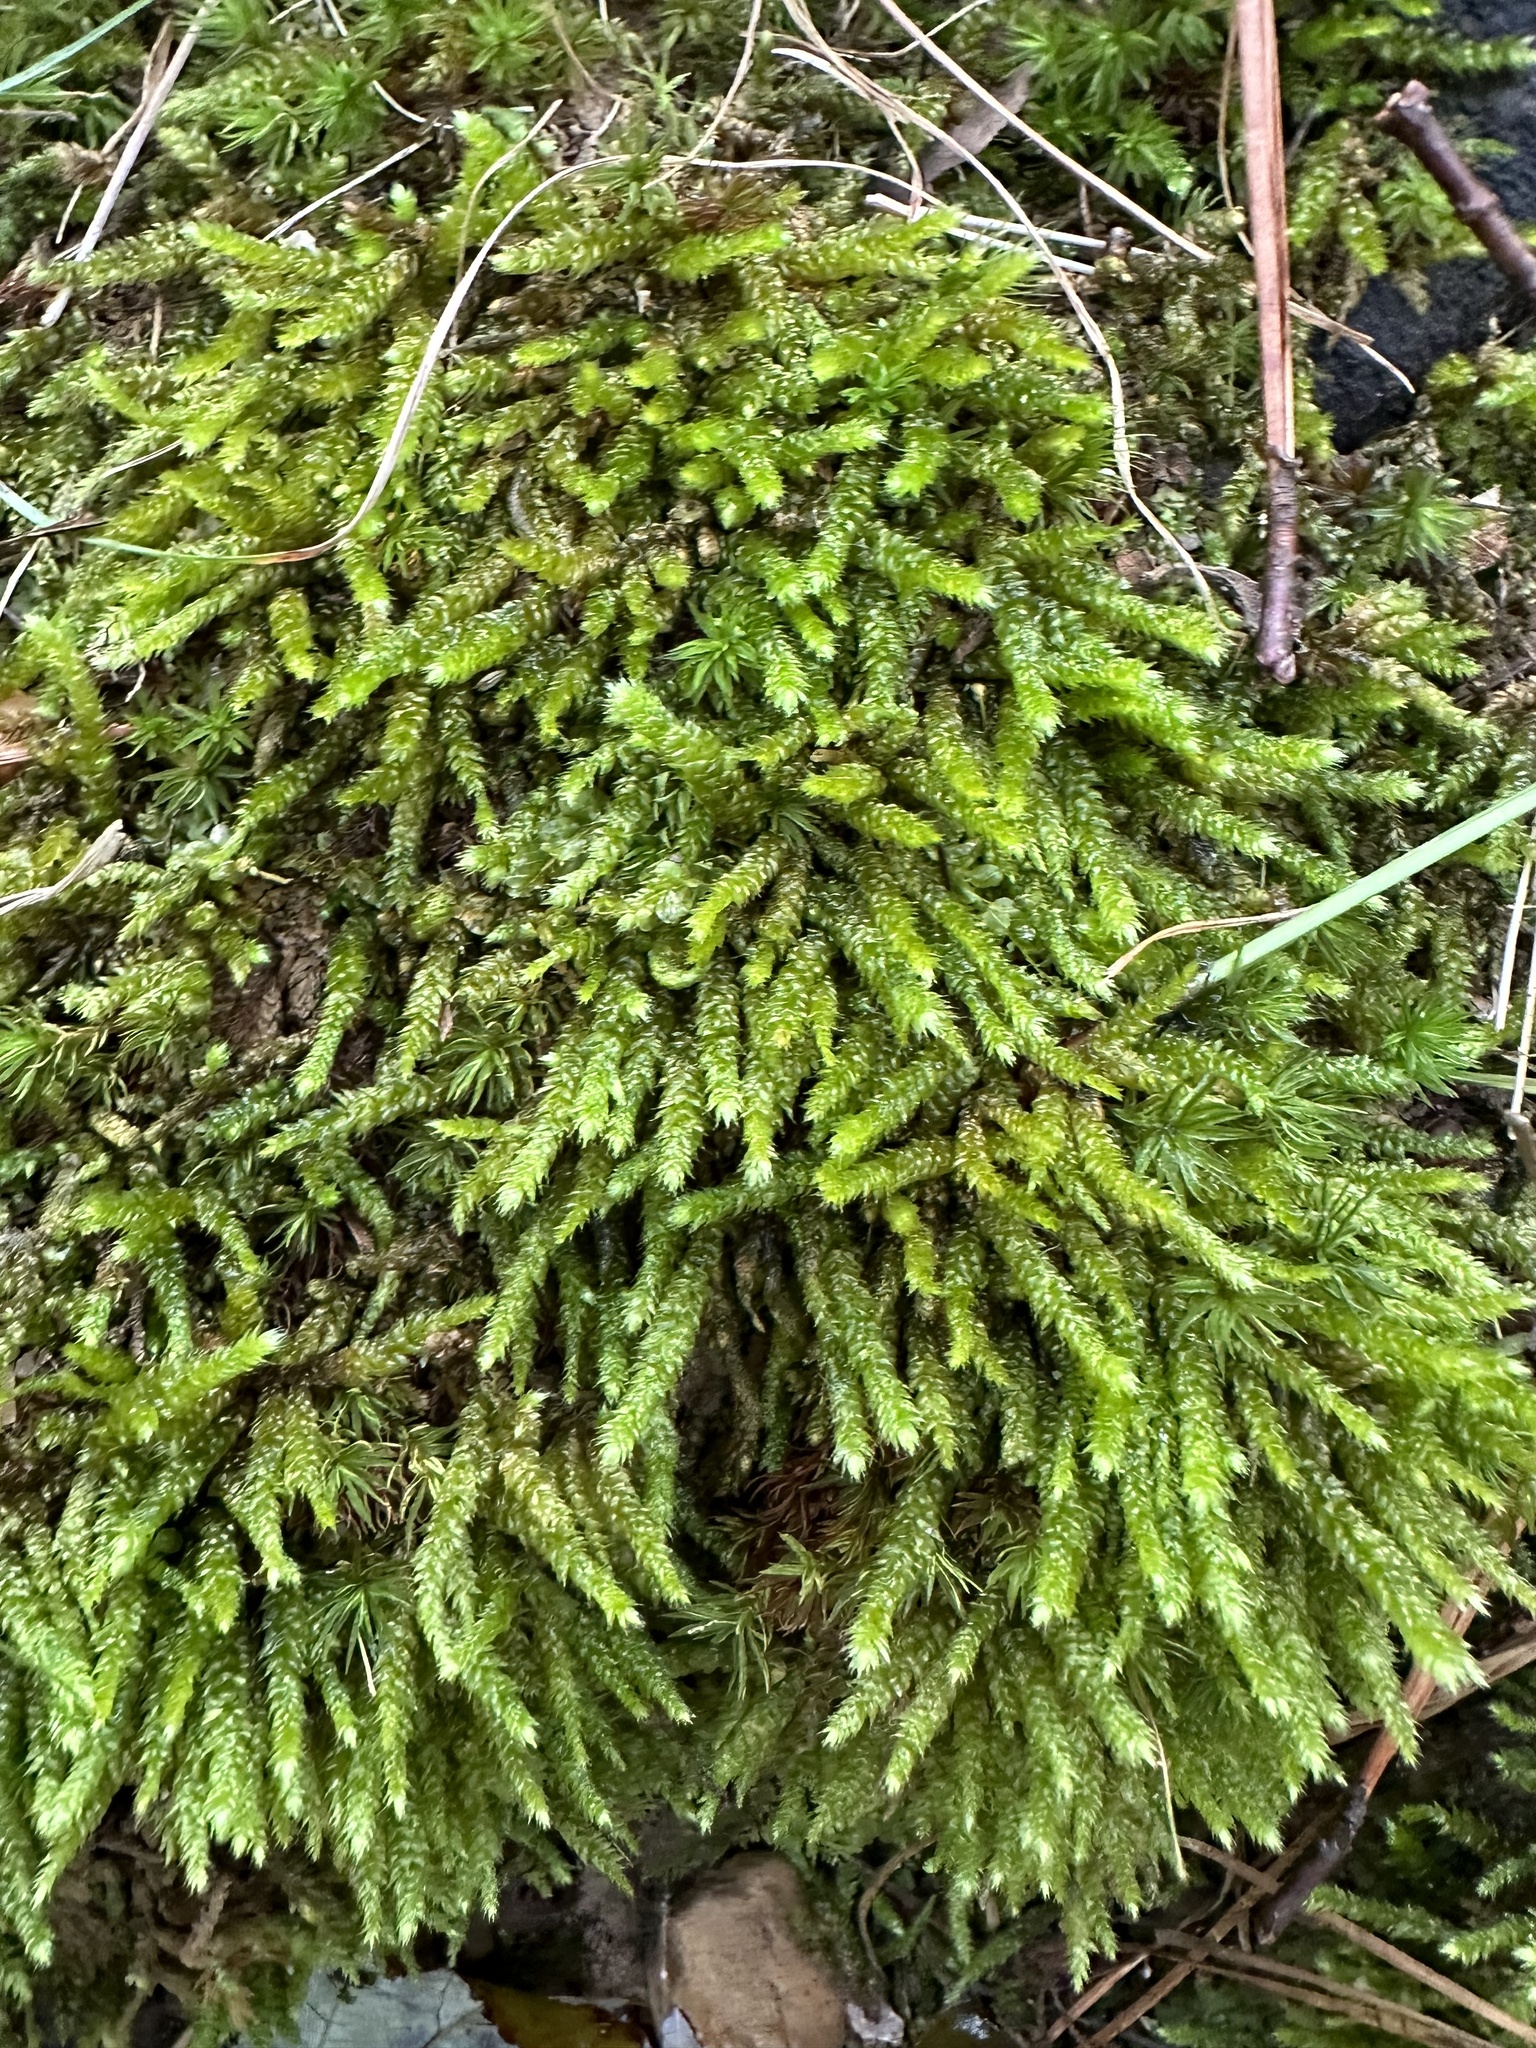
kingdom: Plantae
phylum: Bryophyta
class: Bryopsida
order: Hypnales
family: Brachytheciaceae
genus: Bryoandersonia
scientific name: Bryoandersonia illecebra
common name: Spoon-leaved moss
